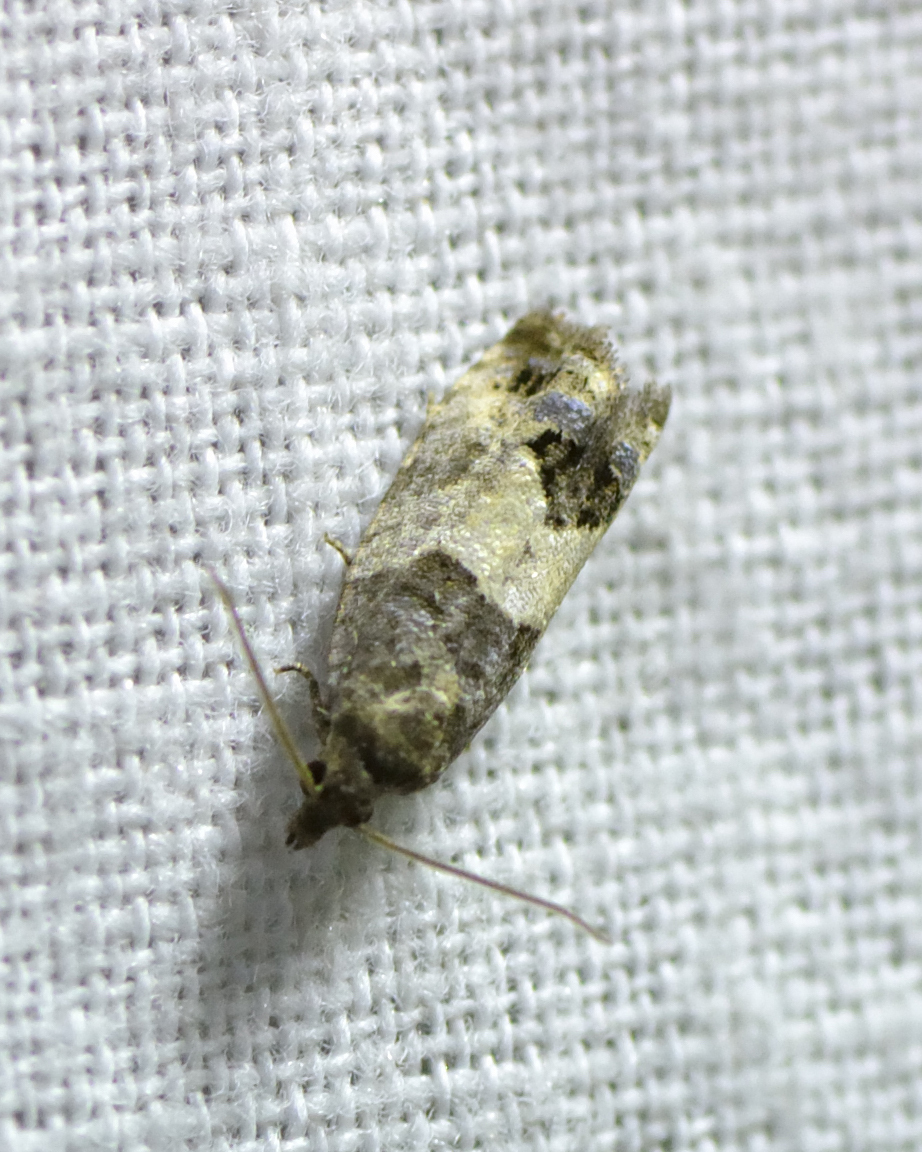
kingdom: Animalia
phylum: Arthropoda
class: Insecta
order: Lepidoptera
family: Tortricidae
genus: Spilonota
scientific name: Spilonota ocellana
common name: Bud moth
